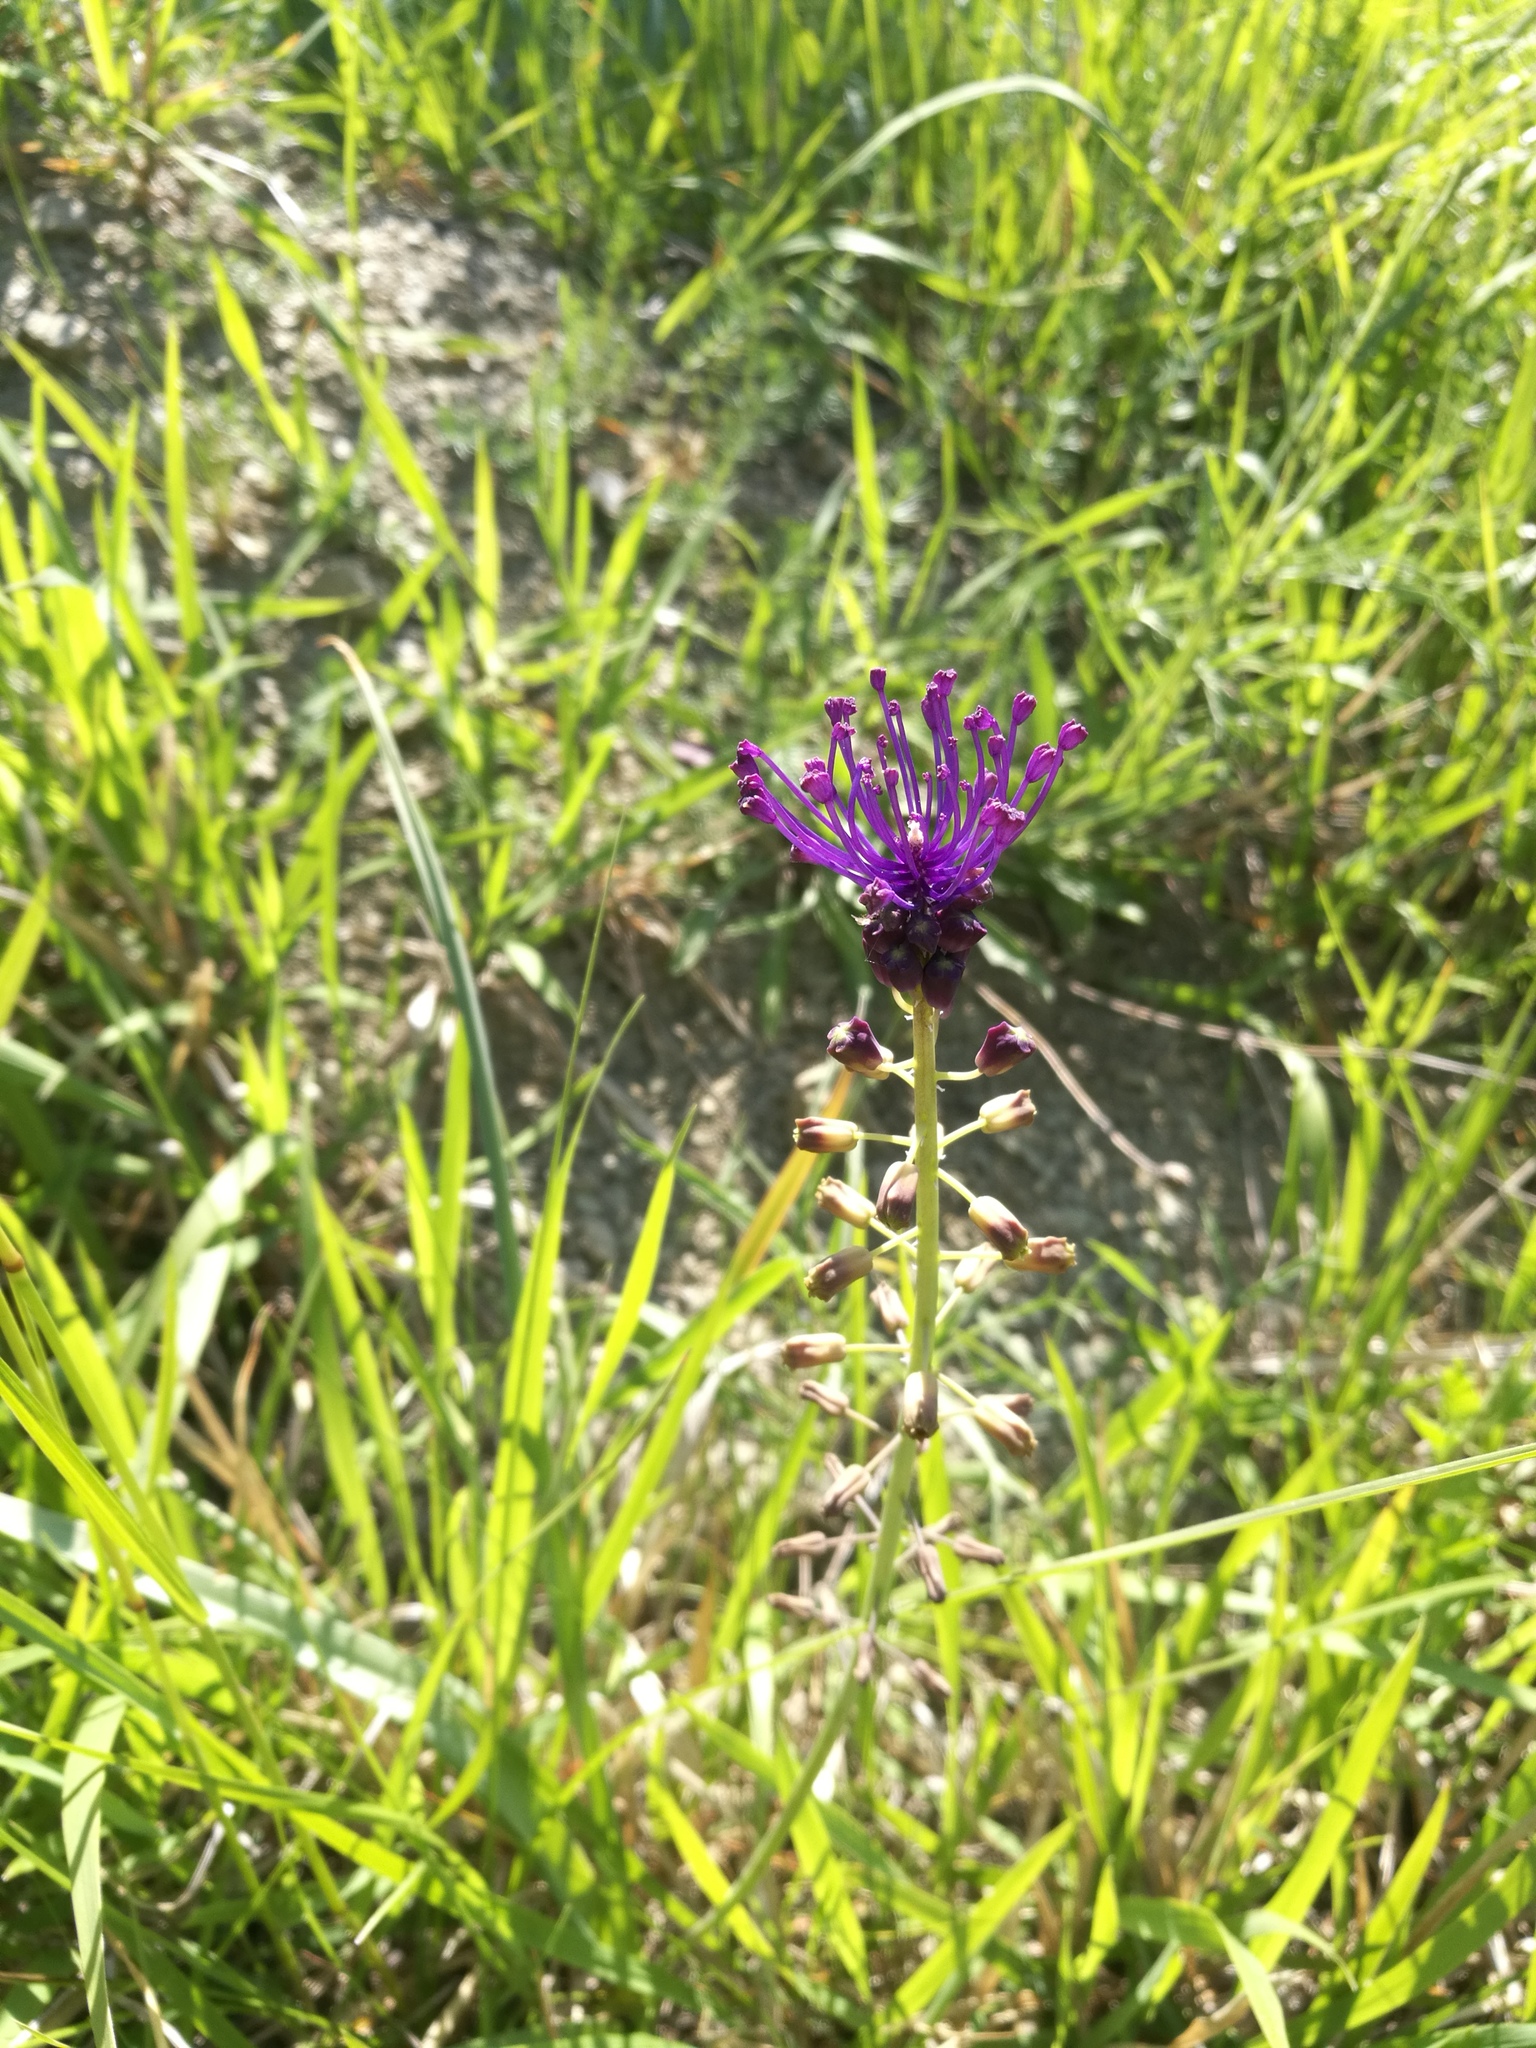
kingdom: Plantae
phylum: Tracheophyta
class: Liliopsida
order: Asparagales
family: Asparagaceae
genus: Muscari
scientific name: Muscari comosum
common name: Tassel hyacinth
